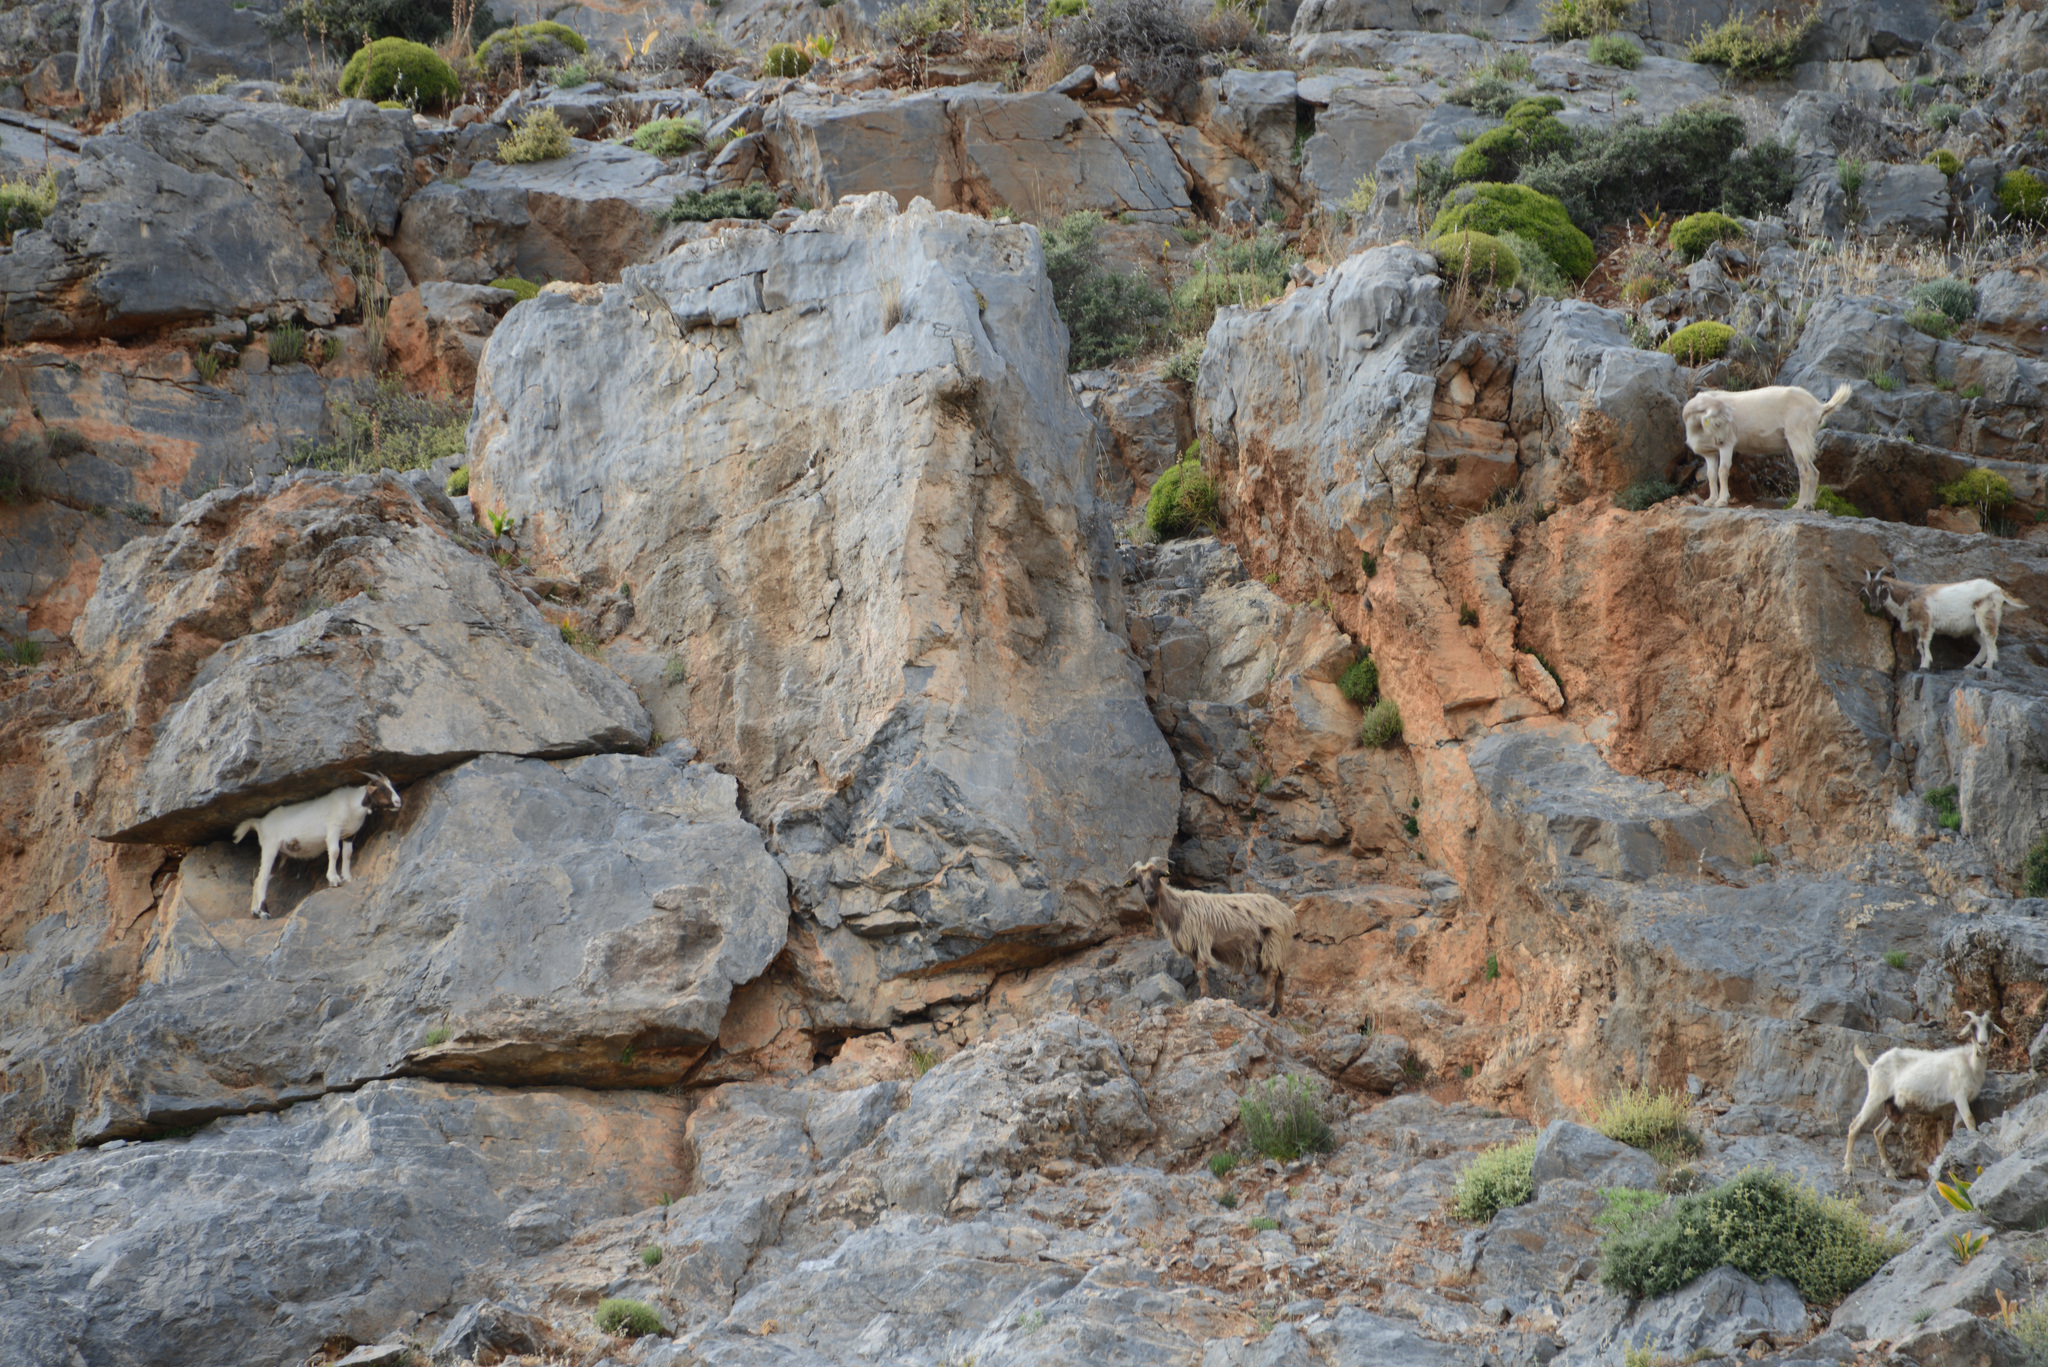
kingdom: Animalia
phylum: Chordata
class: Mammalia
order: Artiodactyla
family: Bovidae
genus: Capra
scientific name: Capra hircus
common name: Domestic goat
